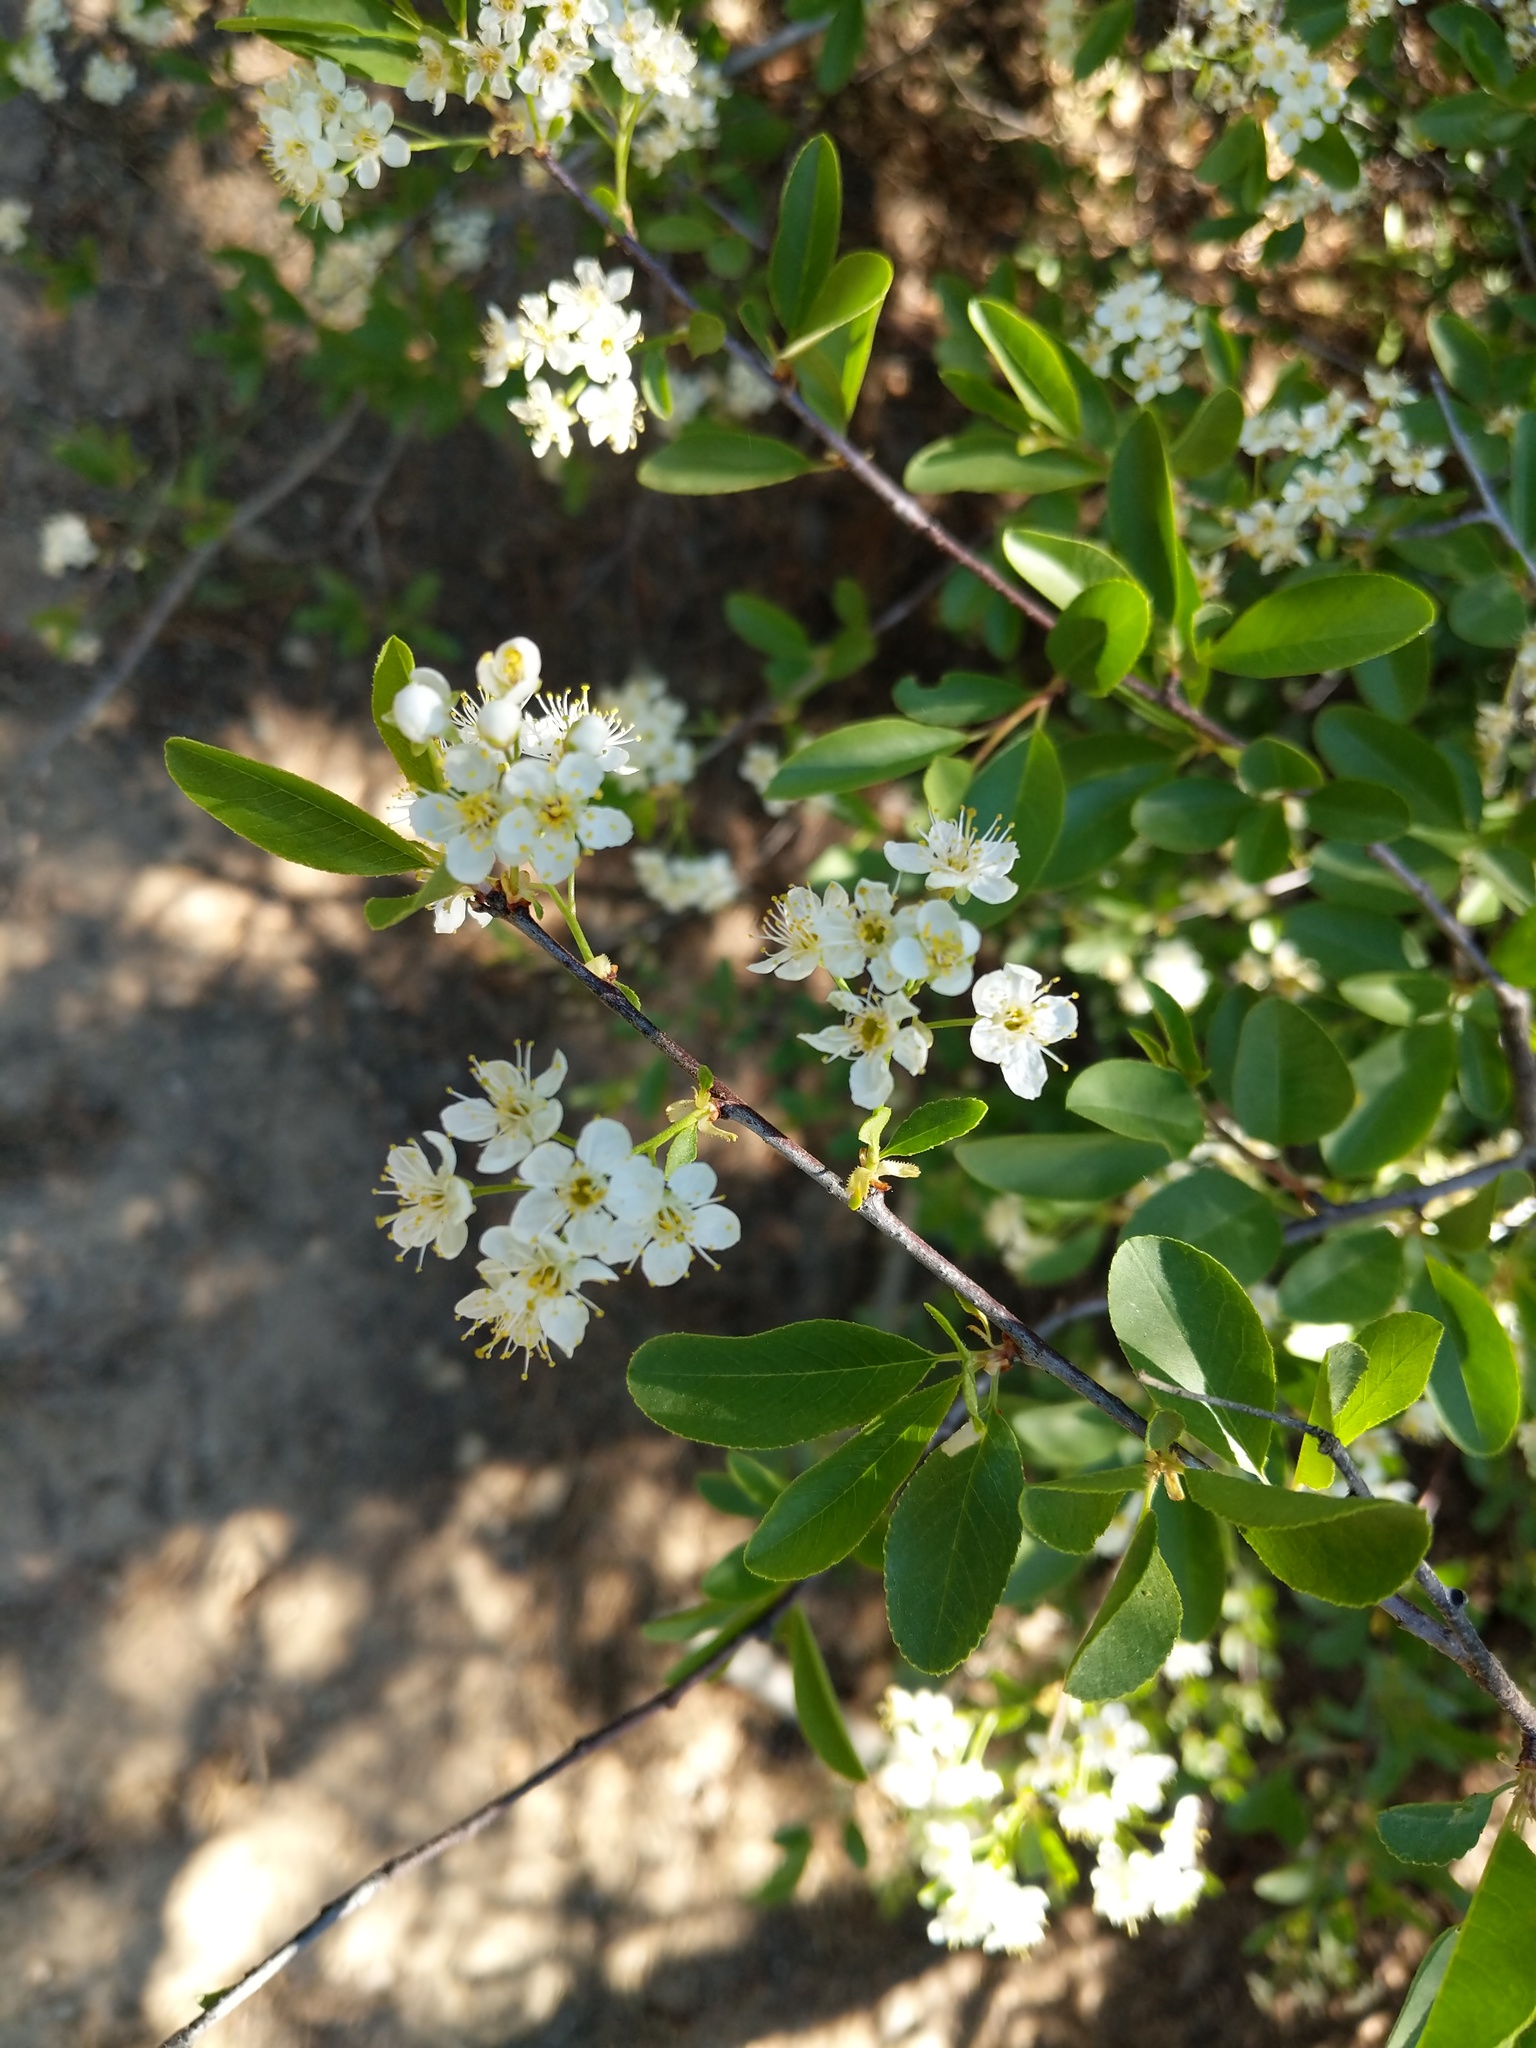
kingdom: Plantae
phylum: Tracheophyta
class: Magnoliopsida
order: Rosales
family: Rosaceae
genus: Prunus
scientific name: Prunus emarginata
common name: Bitter cherry
